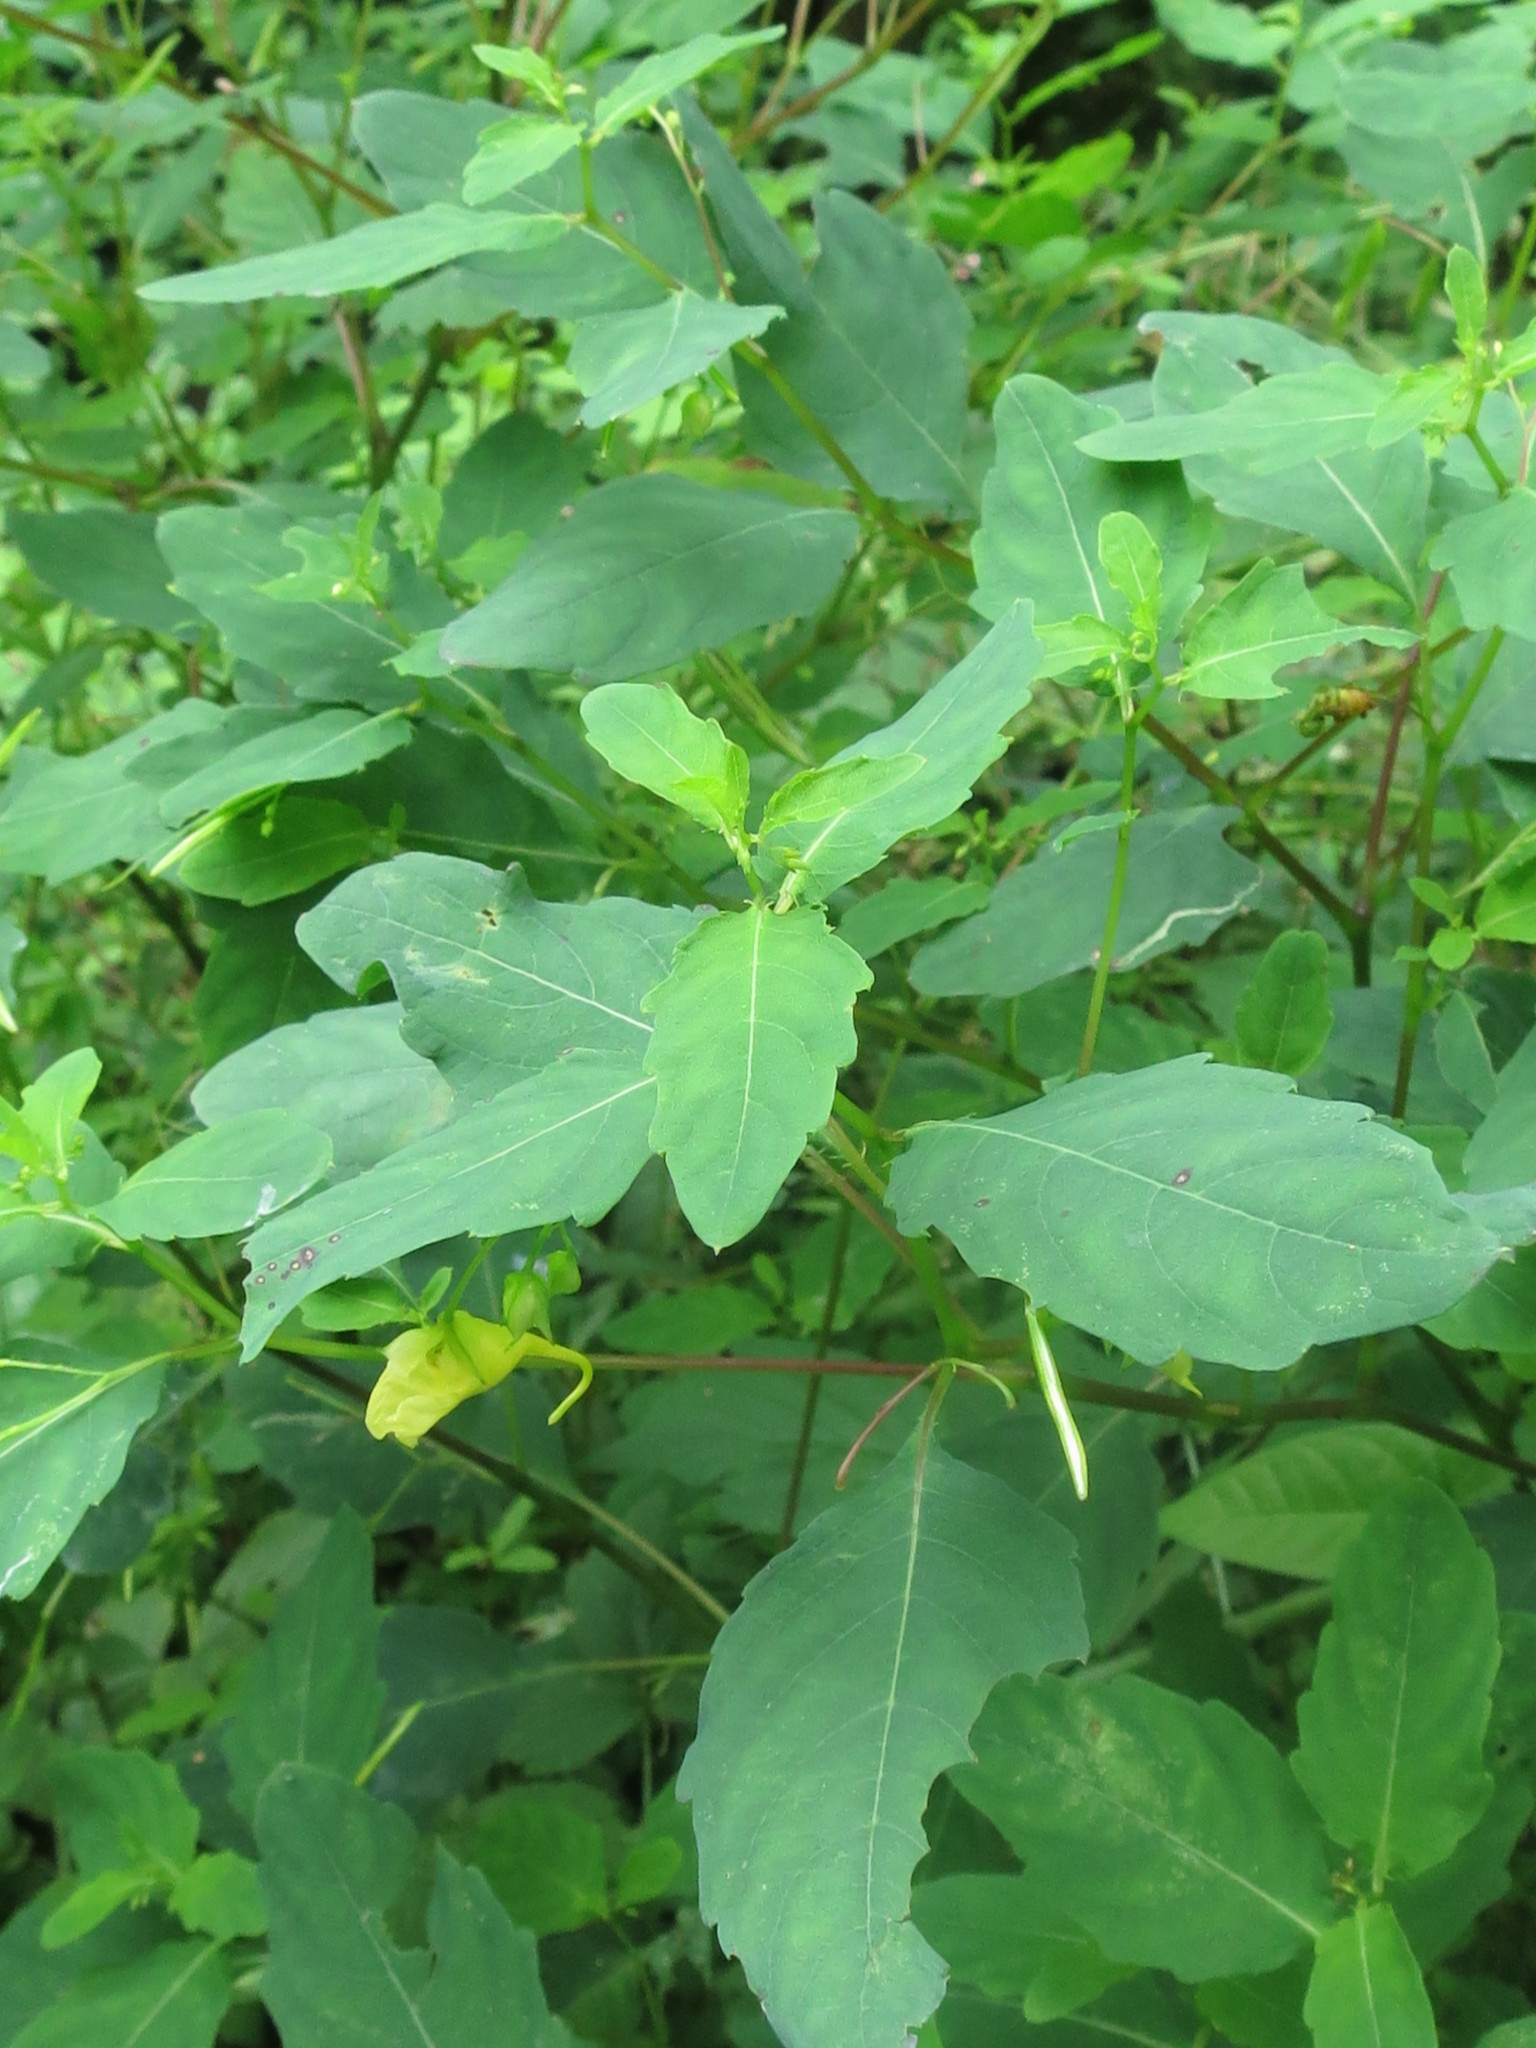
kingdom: Plantae
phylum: Tracheophyta
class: Magnoliopsida
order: Ericales
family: Balsaminaceae
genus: Impatiens
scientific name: Impatiens noli-tangere
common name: Touch-me-not balsam
